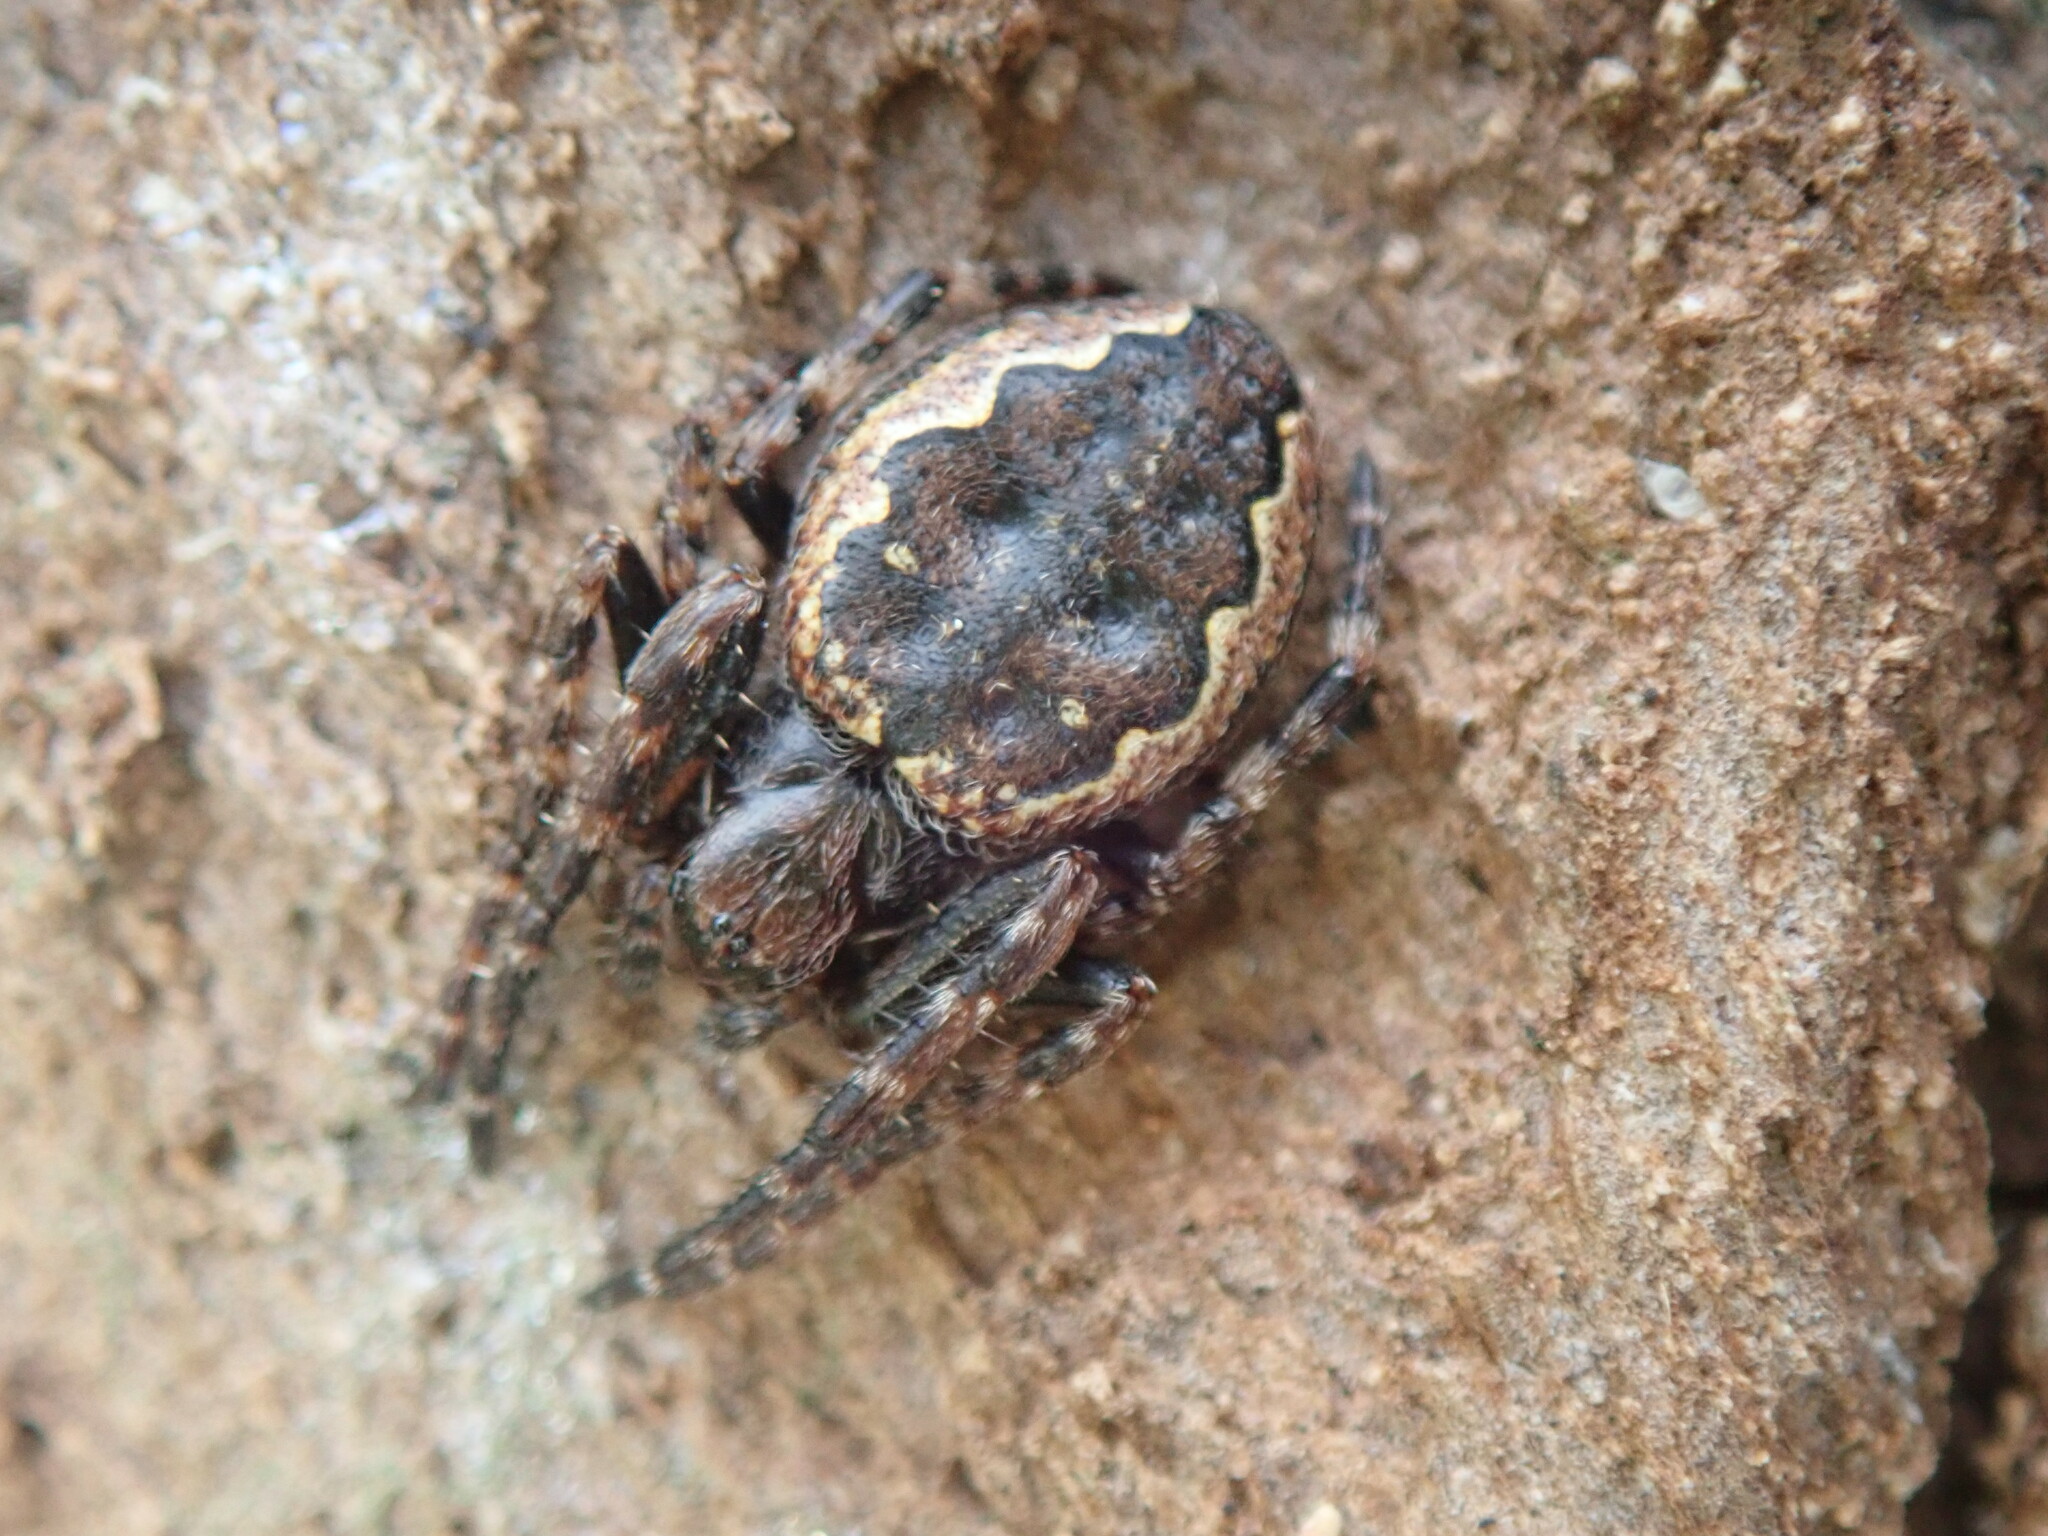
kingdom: Animalia
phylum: Arthropoda
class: Arachnida
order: Araneae
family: Araneidae
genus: Nuctenea
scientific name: Nuctenea umbratica
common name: Toad spider
